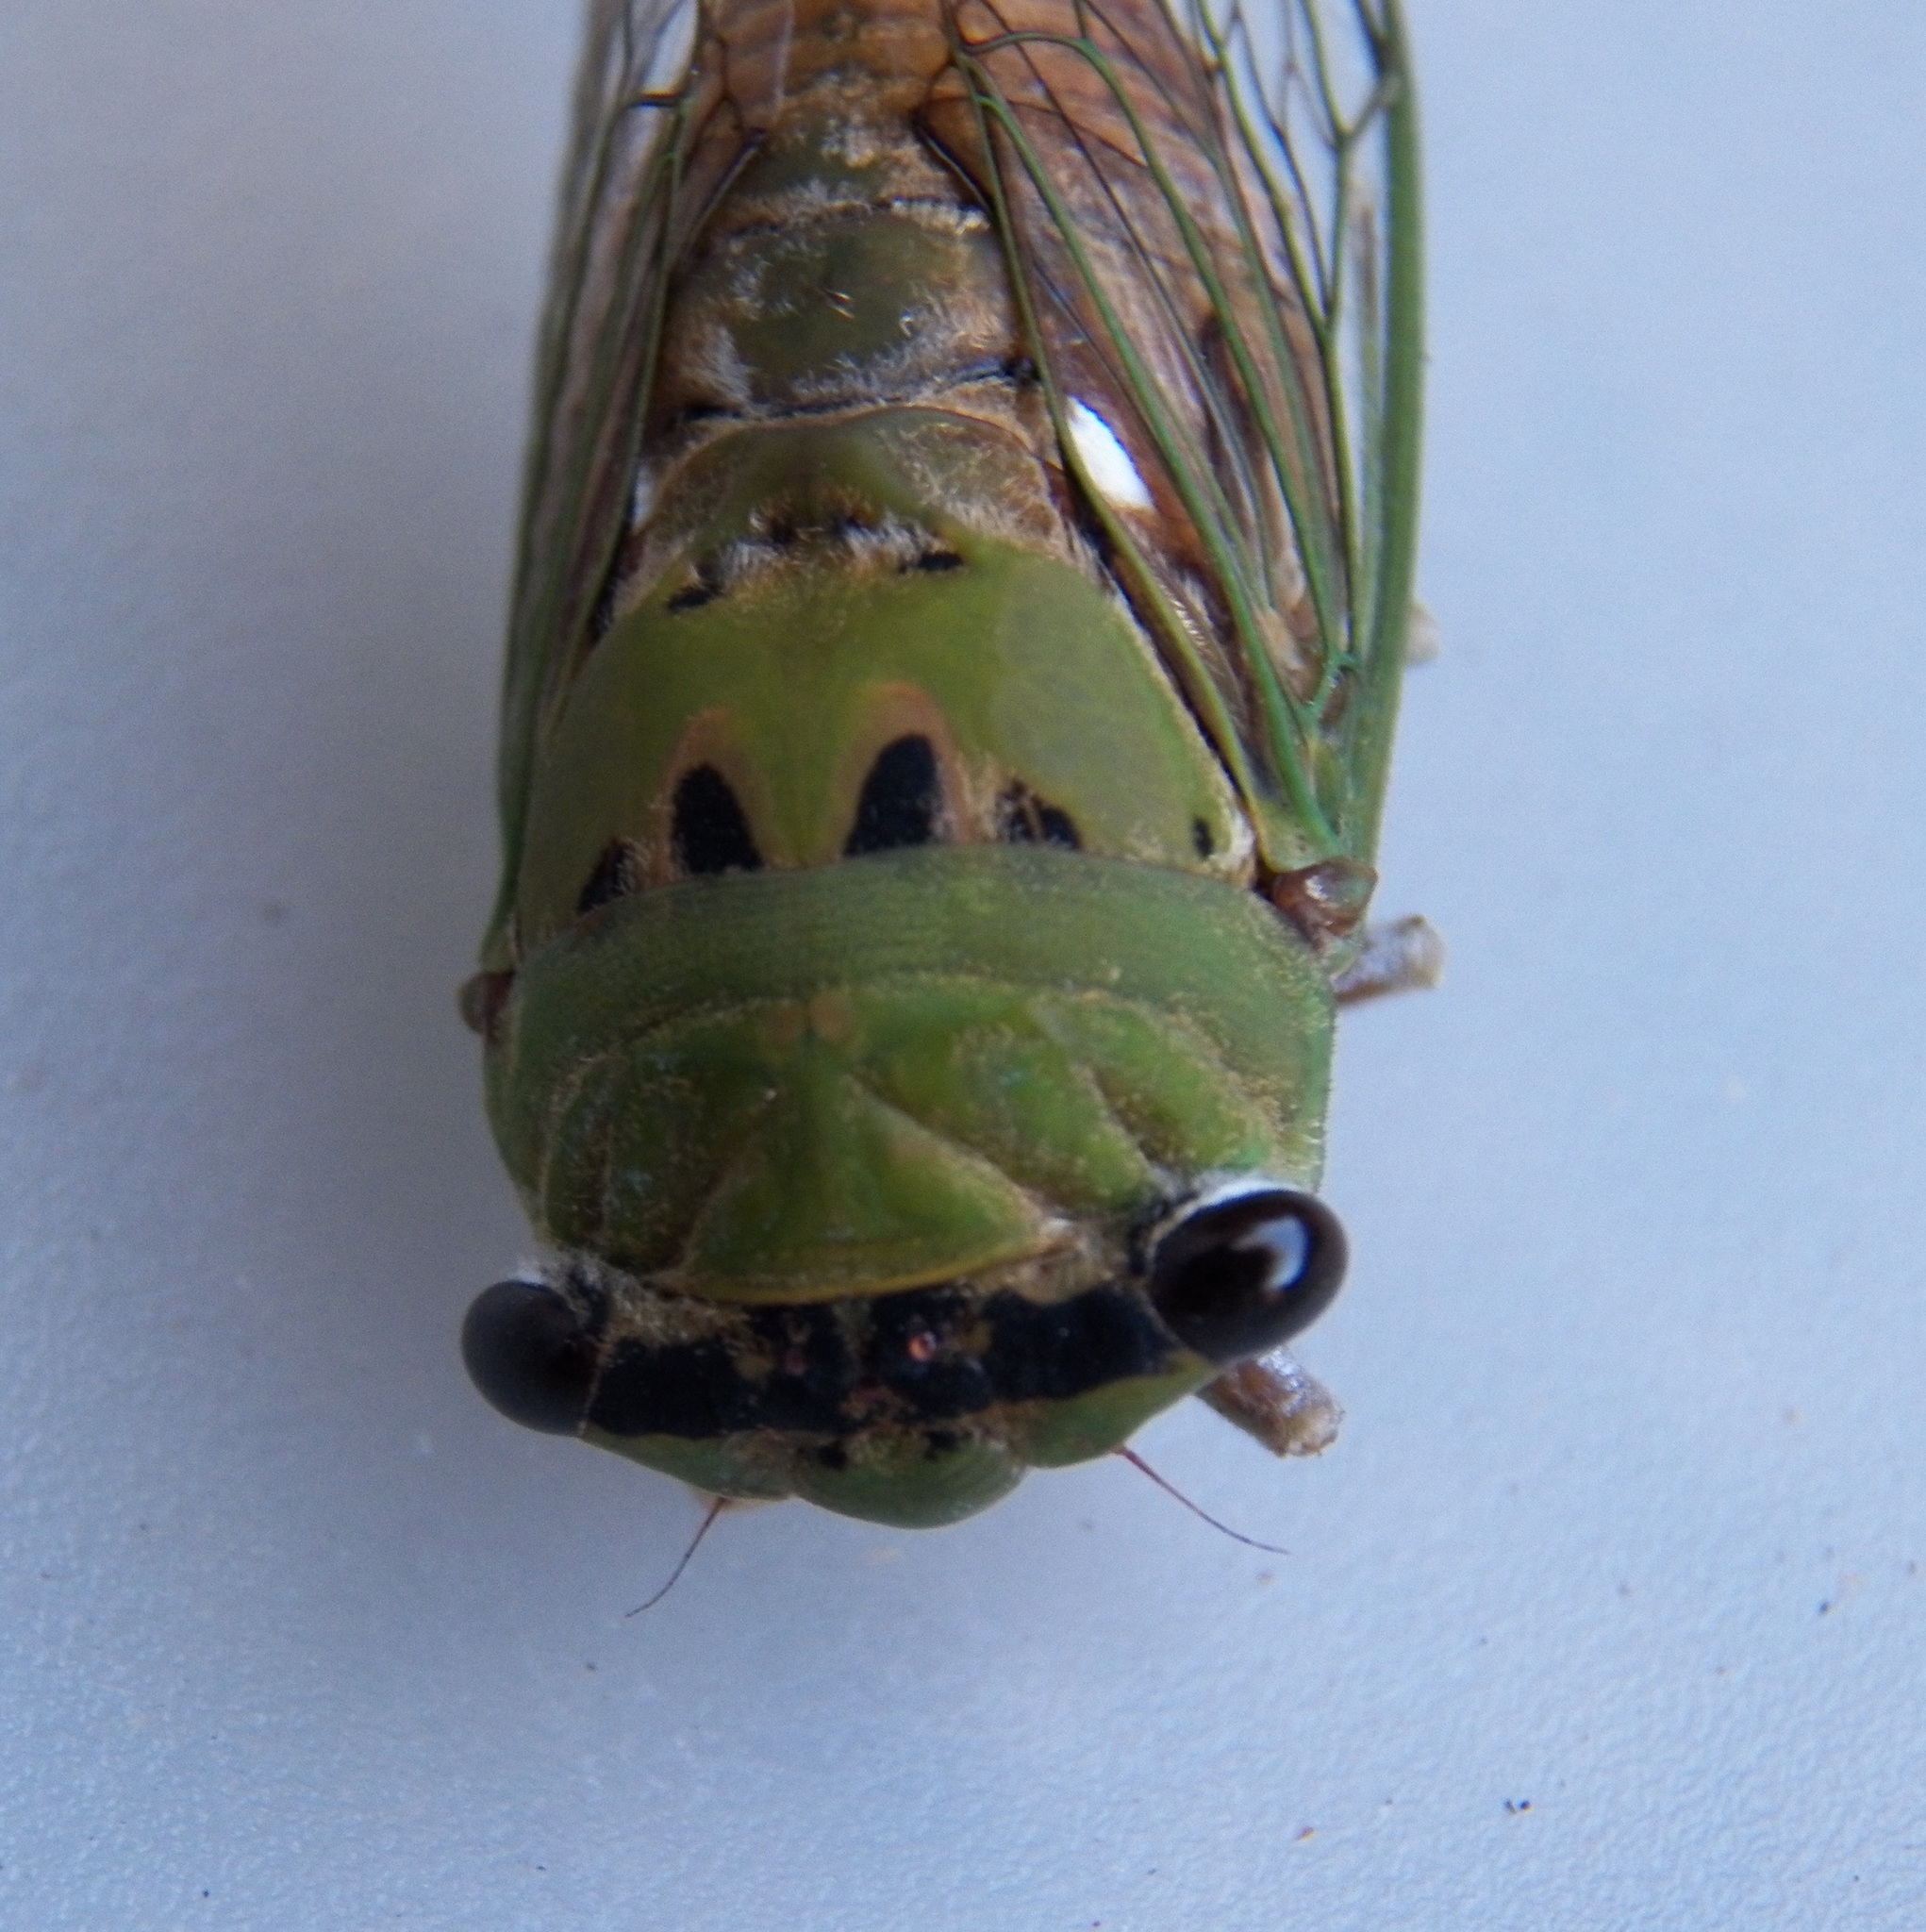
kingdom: Animalia
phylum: Arthropoda
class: Insecta
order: Hemiptera
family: Cicadidae
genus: Neotibicen
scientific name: Neotibicen superbus
